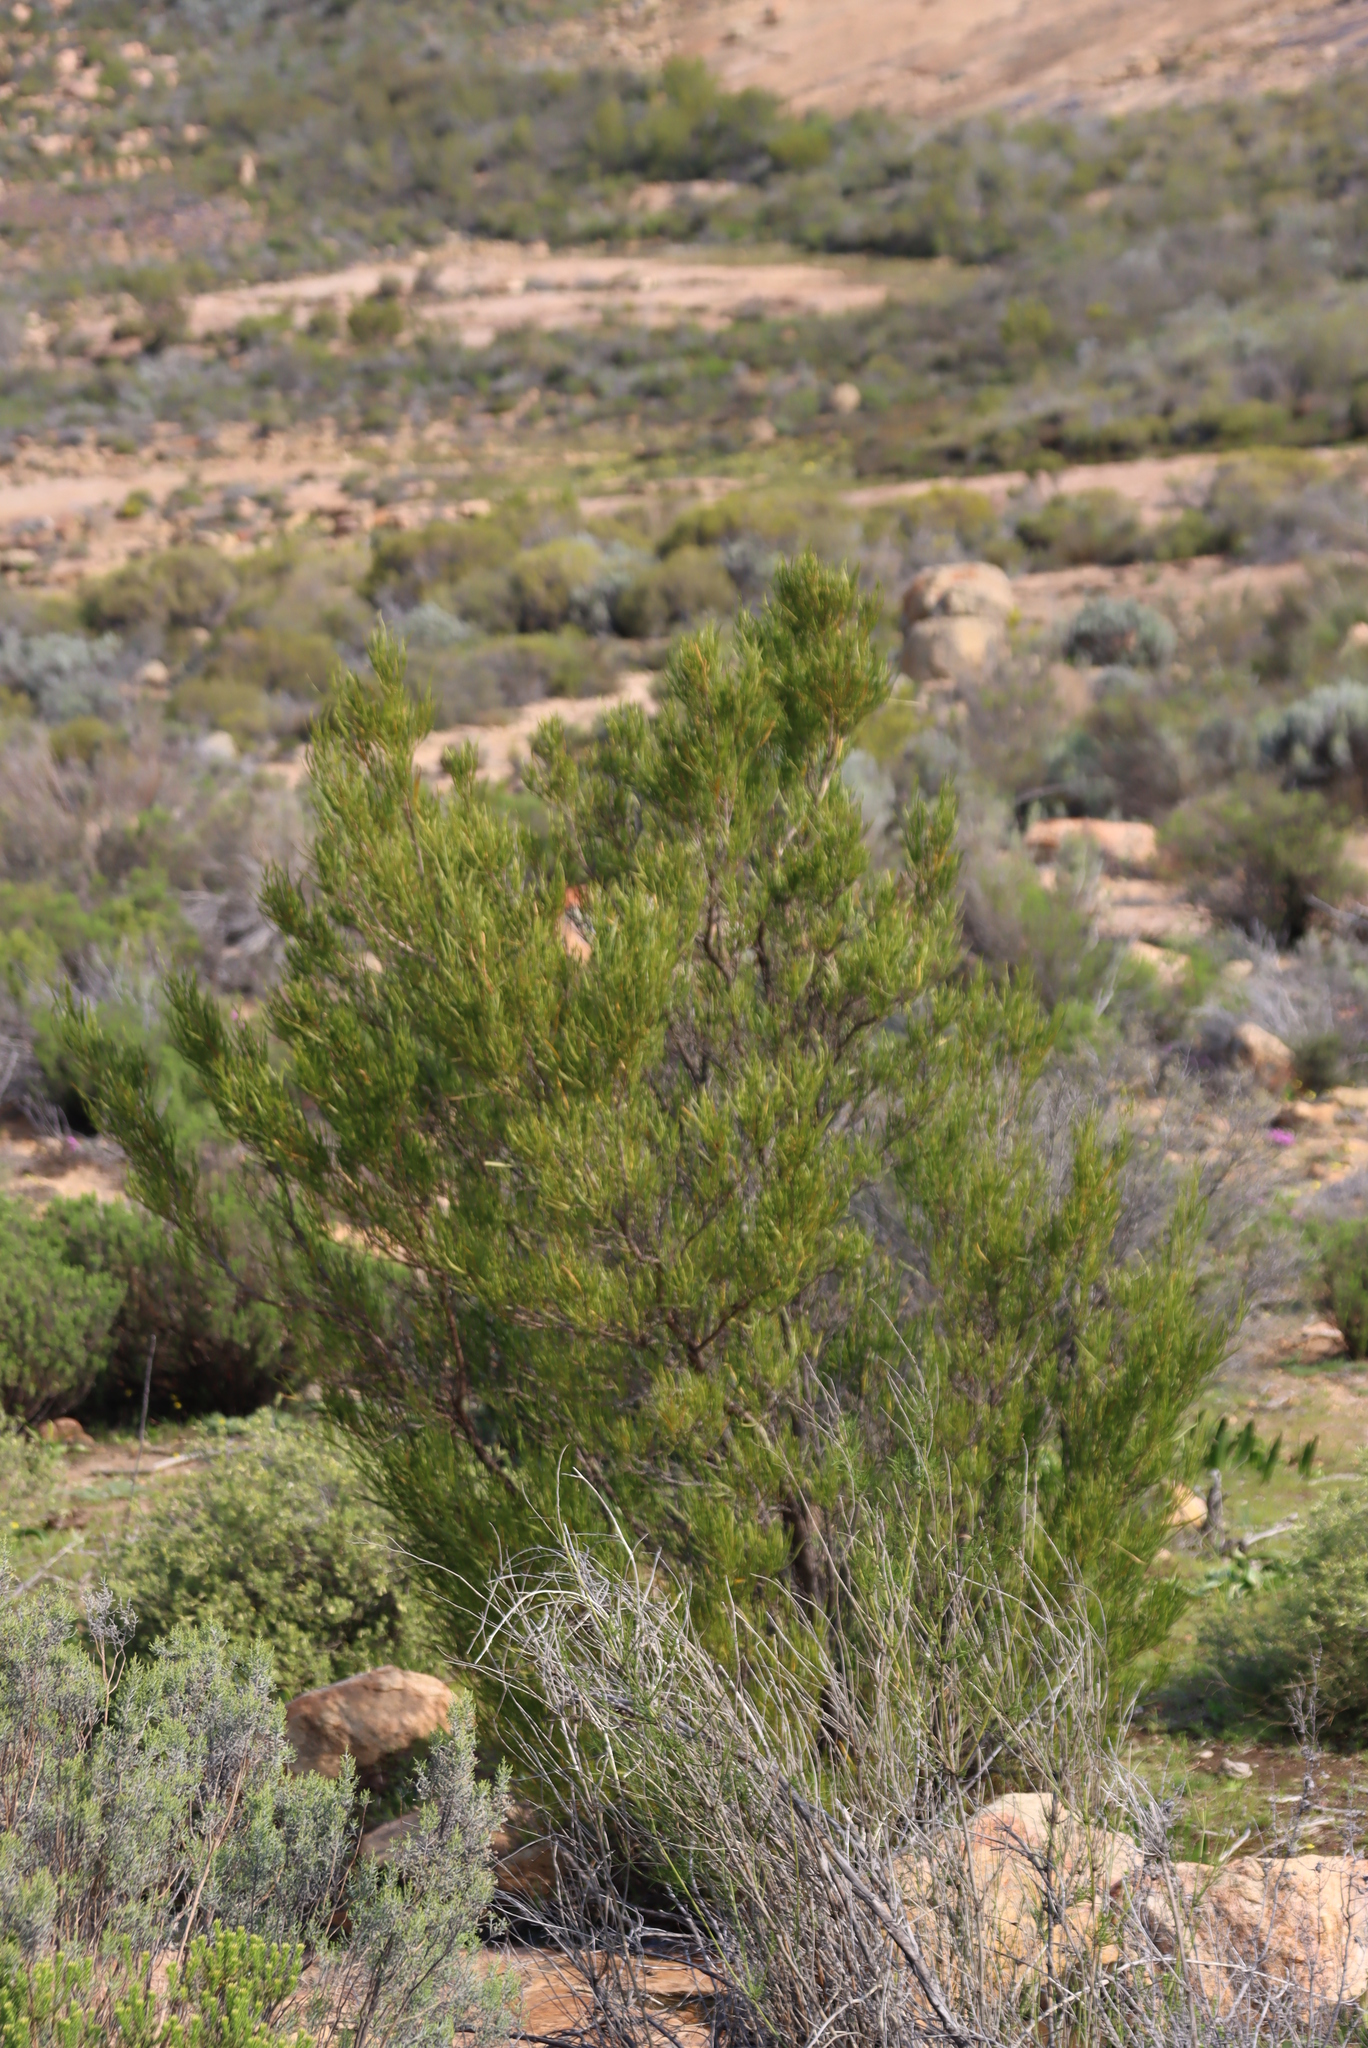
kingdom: Plantae
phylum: Tracheophyta
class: Magnoliopsida
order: Sapindales
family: Sapindaceae
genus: Dodonaea
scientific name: Dodonaea viscosa
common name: Hopbush
